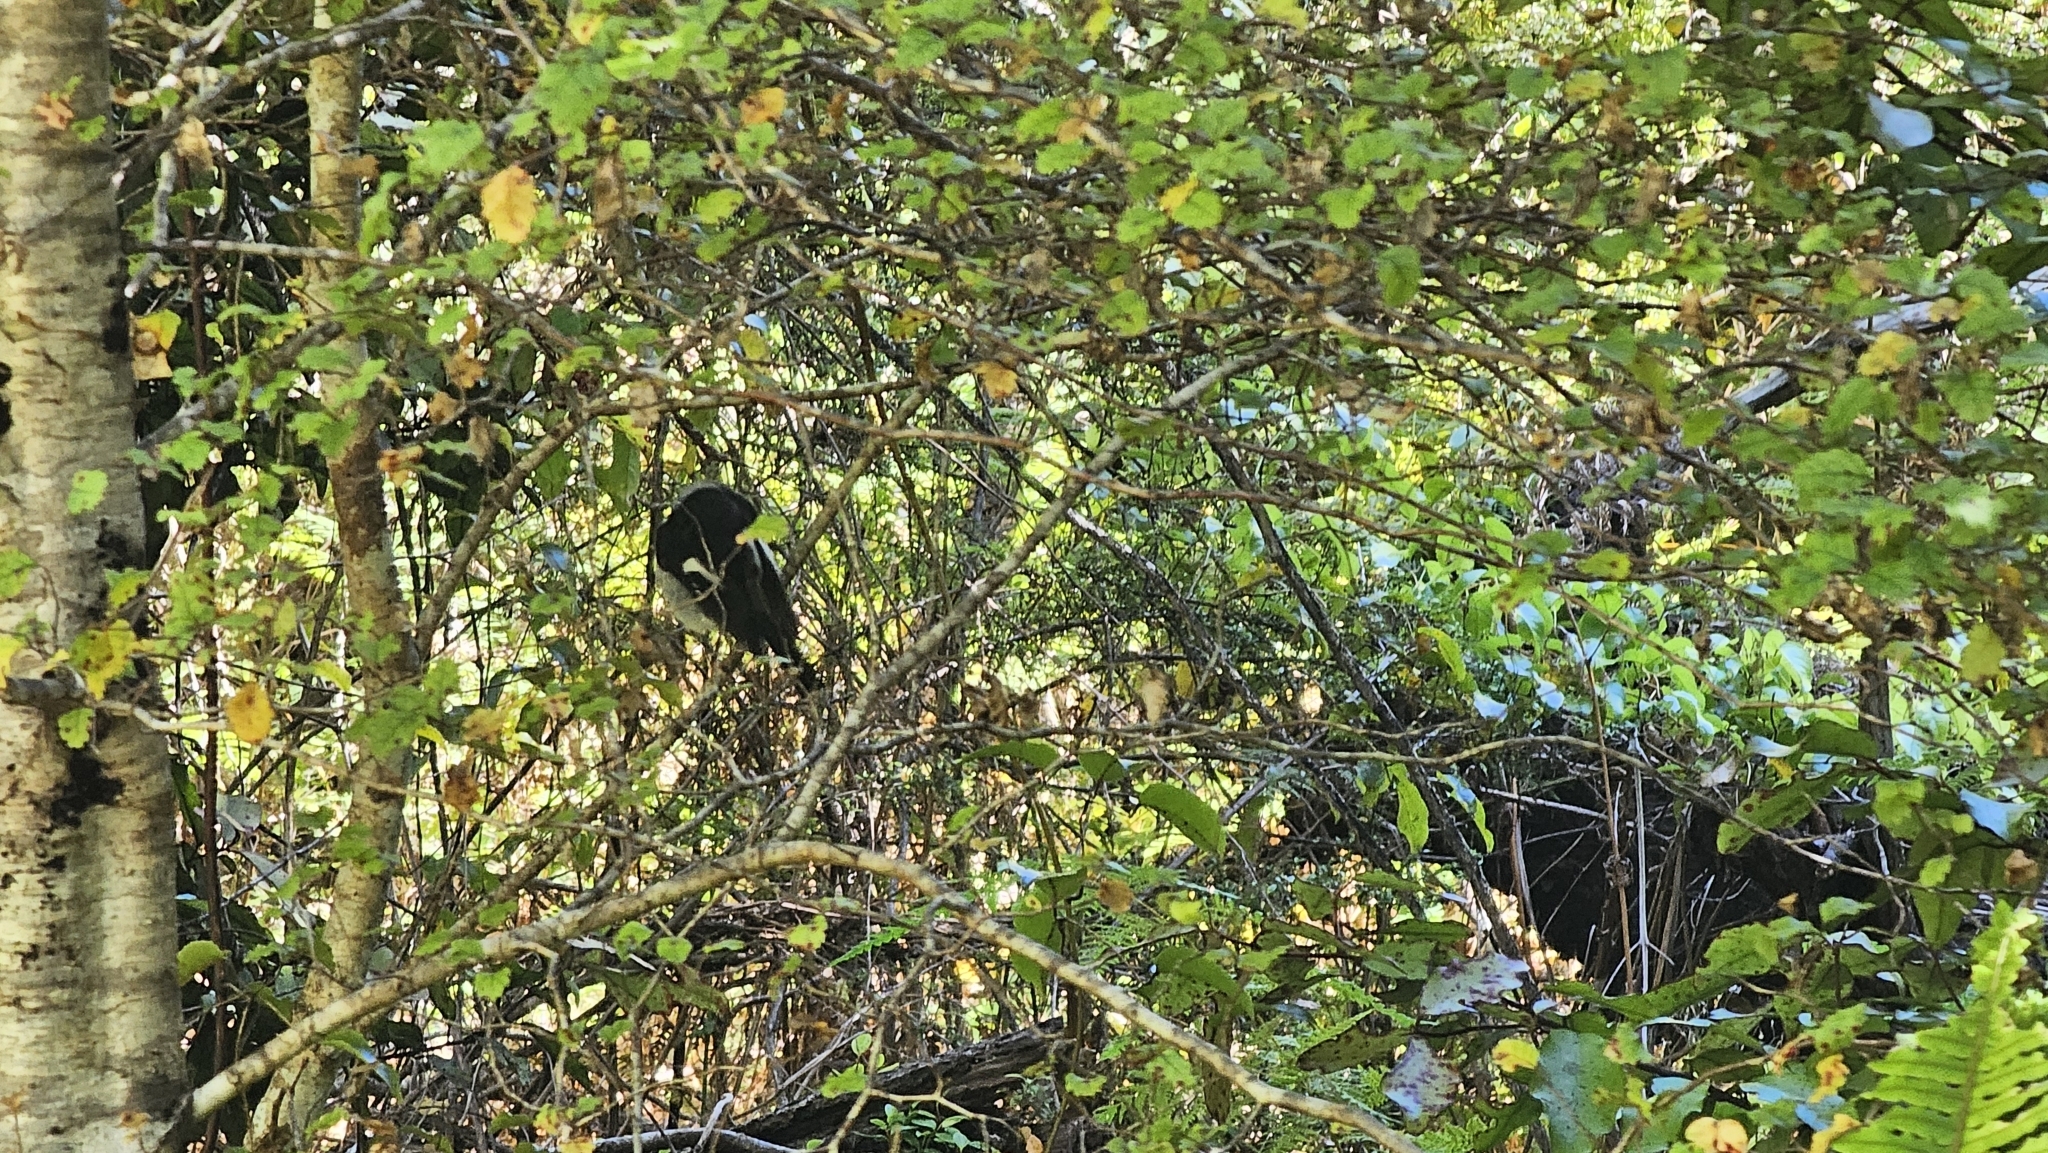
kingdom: Animalia
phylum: Chordata
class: Aves
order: Passeriformes
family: Petroicidae
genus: Petroica
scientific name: Petroica macrocephala
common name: Tomtit
